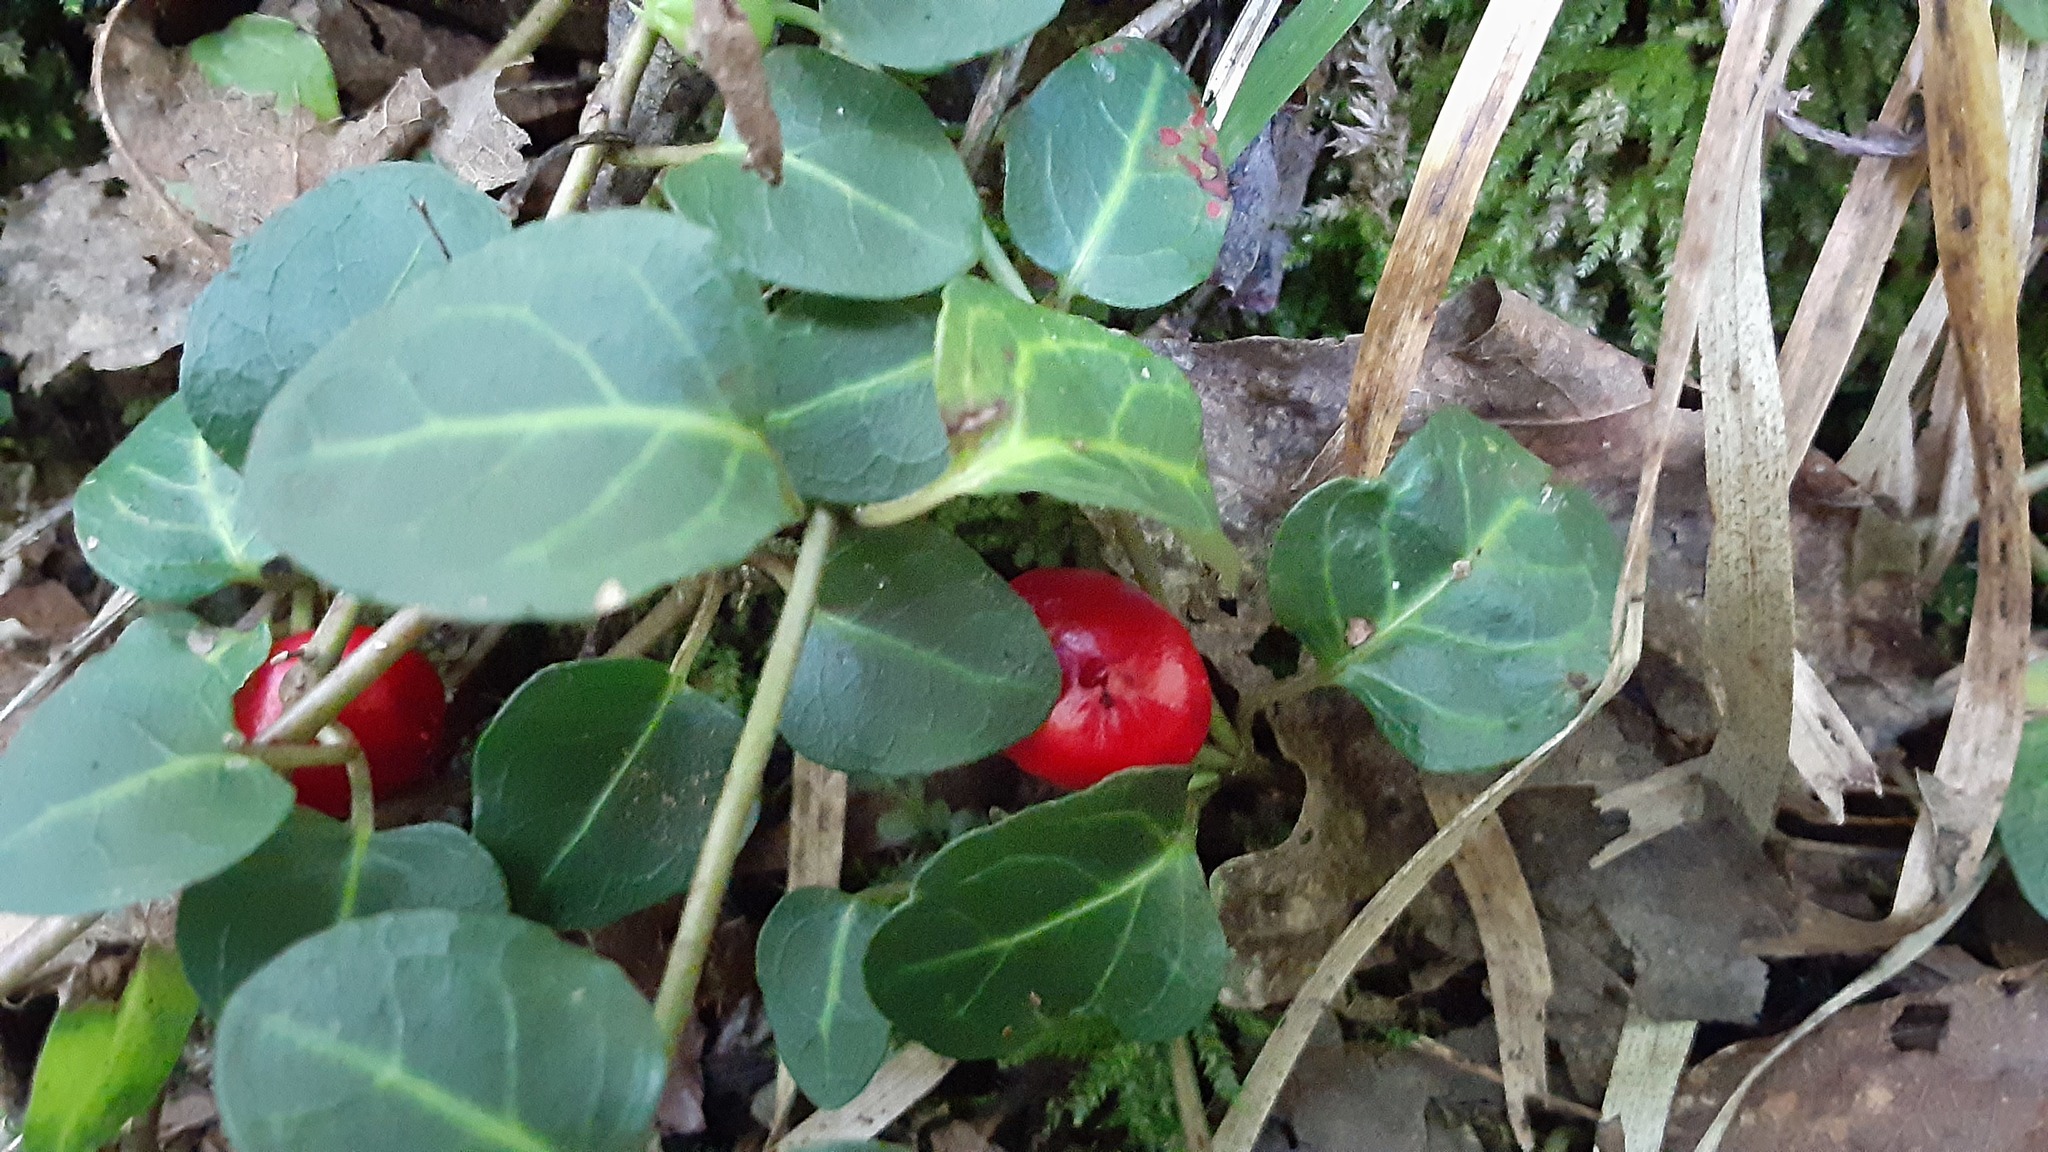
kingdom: Plantae
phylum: Tracheophyta
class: Magnoliopsida
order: Gentianales
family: Rubiaceae
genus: Mitchella
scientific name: Mitchella repens
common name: Partridge-berry
